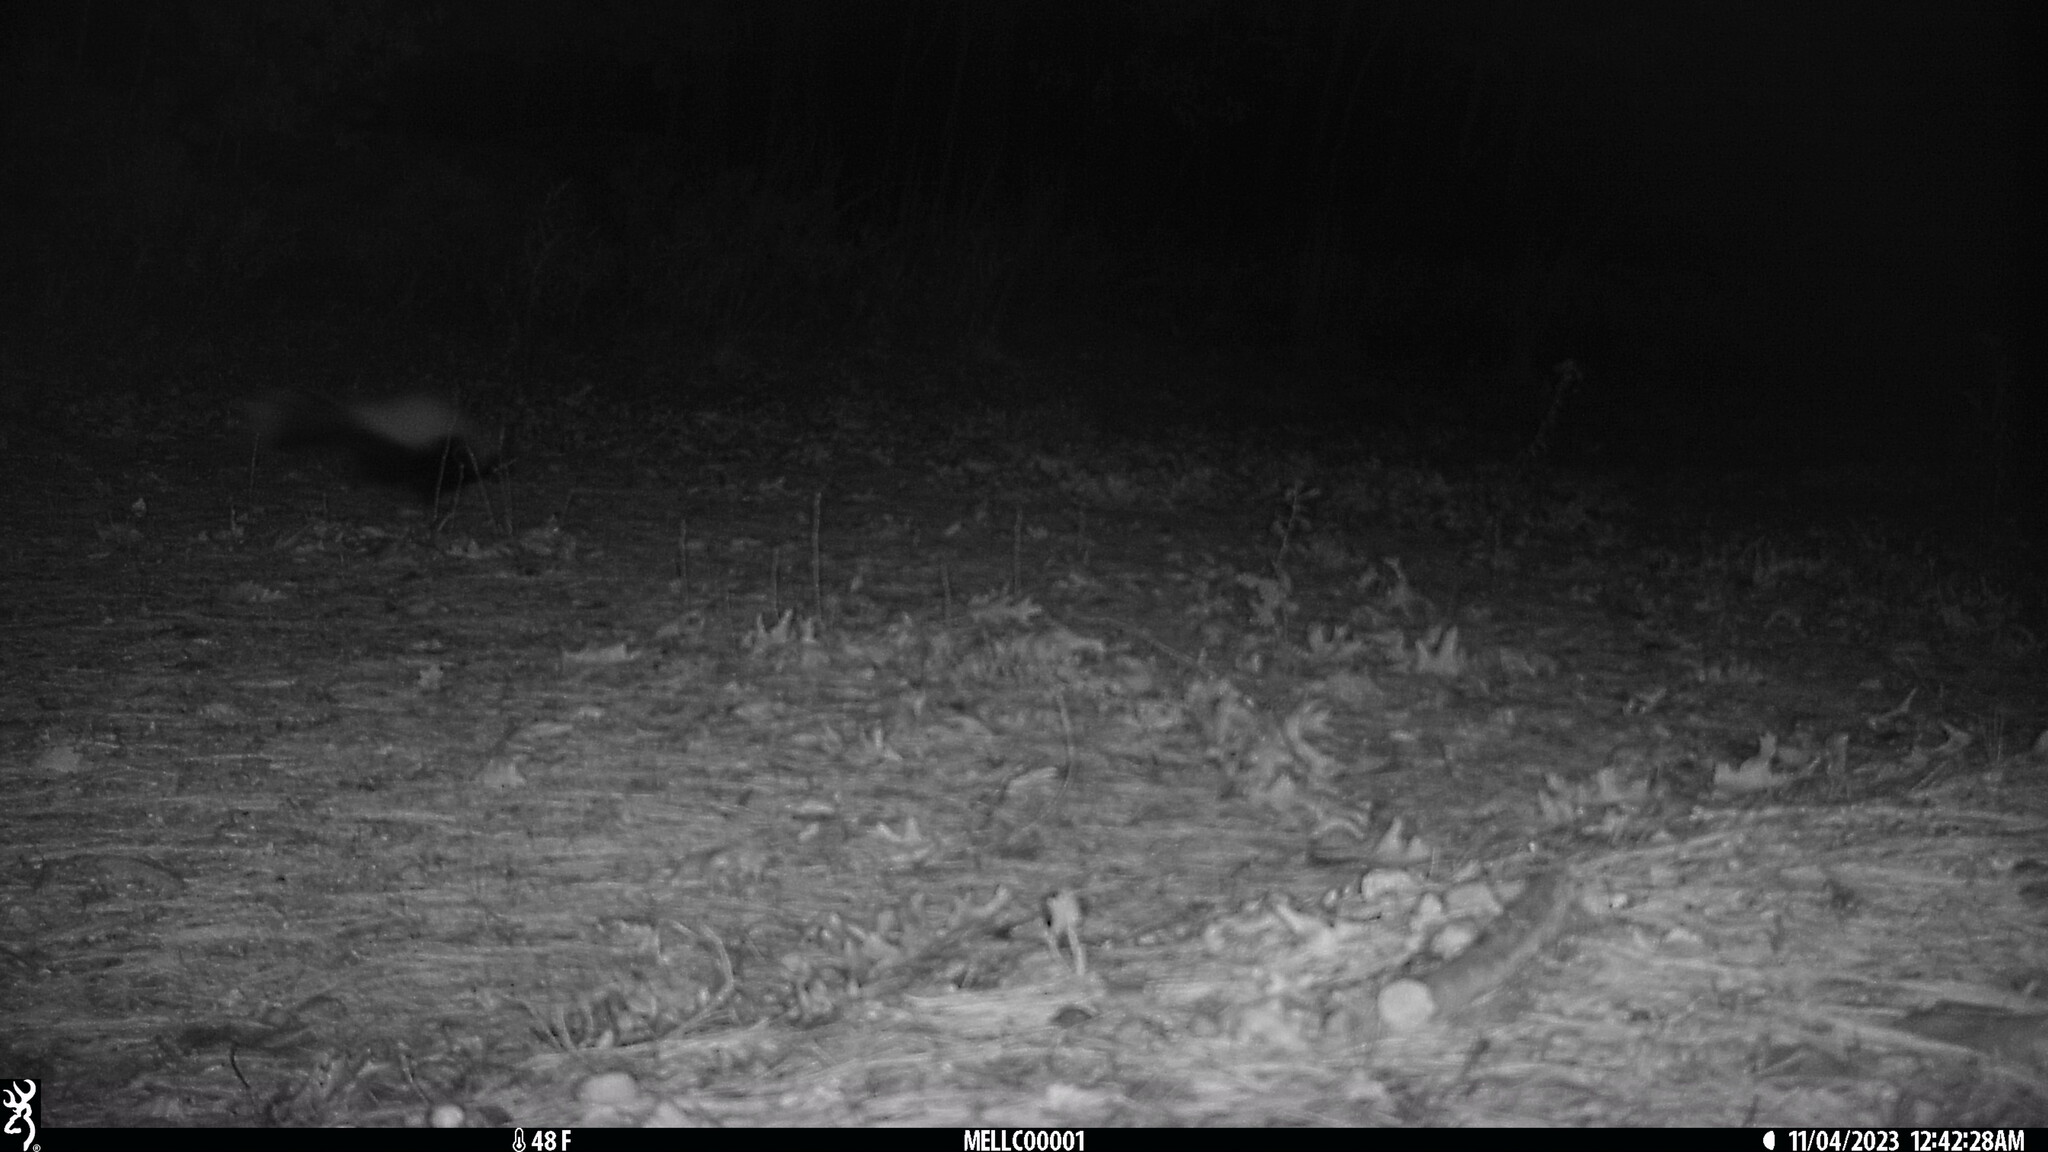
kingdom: Animalia
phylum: Chordata
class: Mammalia
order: Carnivora
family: Mephitidae
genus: Mephitis
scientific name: Mephitis mephitis
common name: Striped skunk
